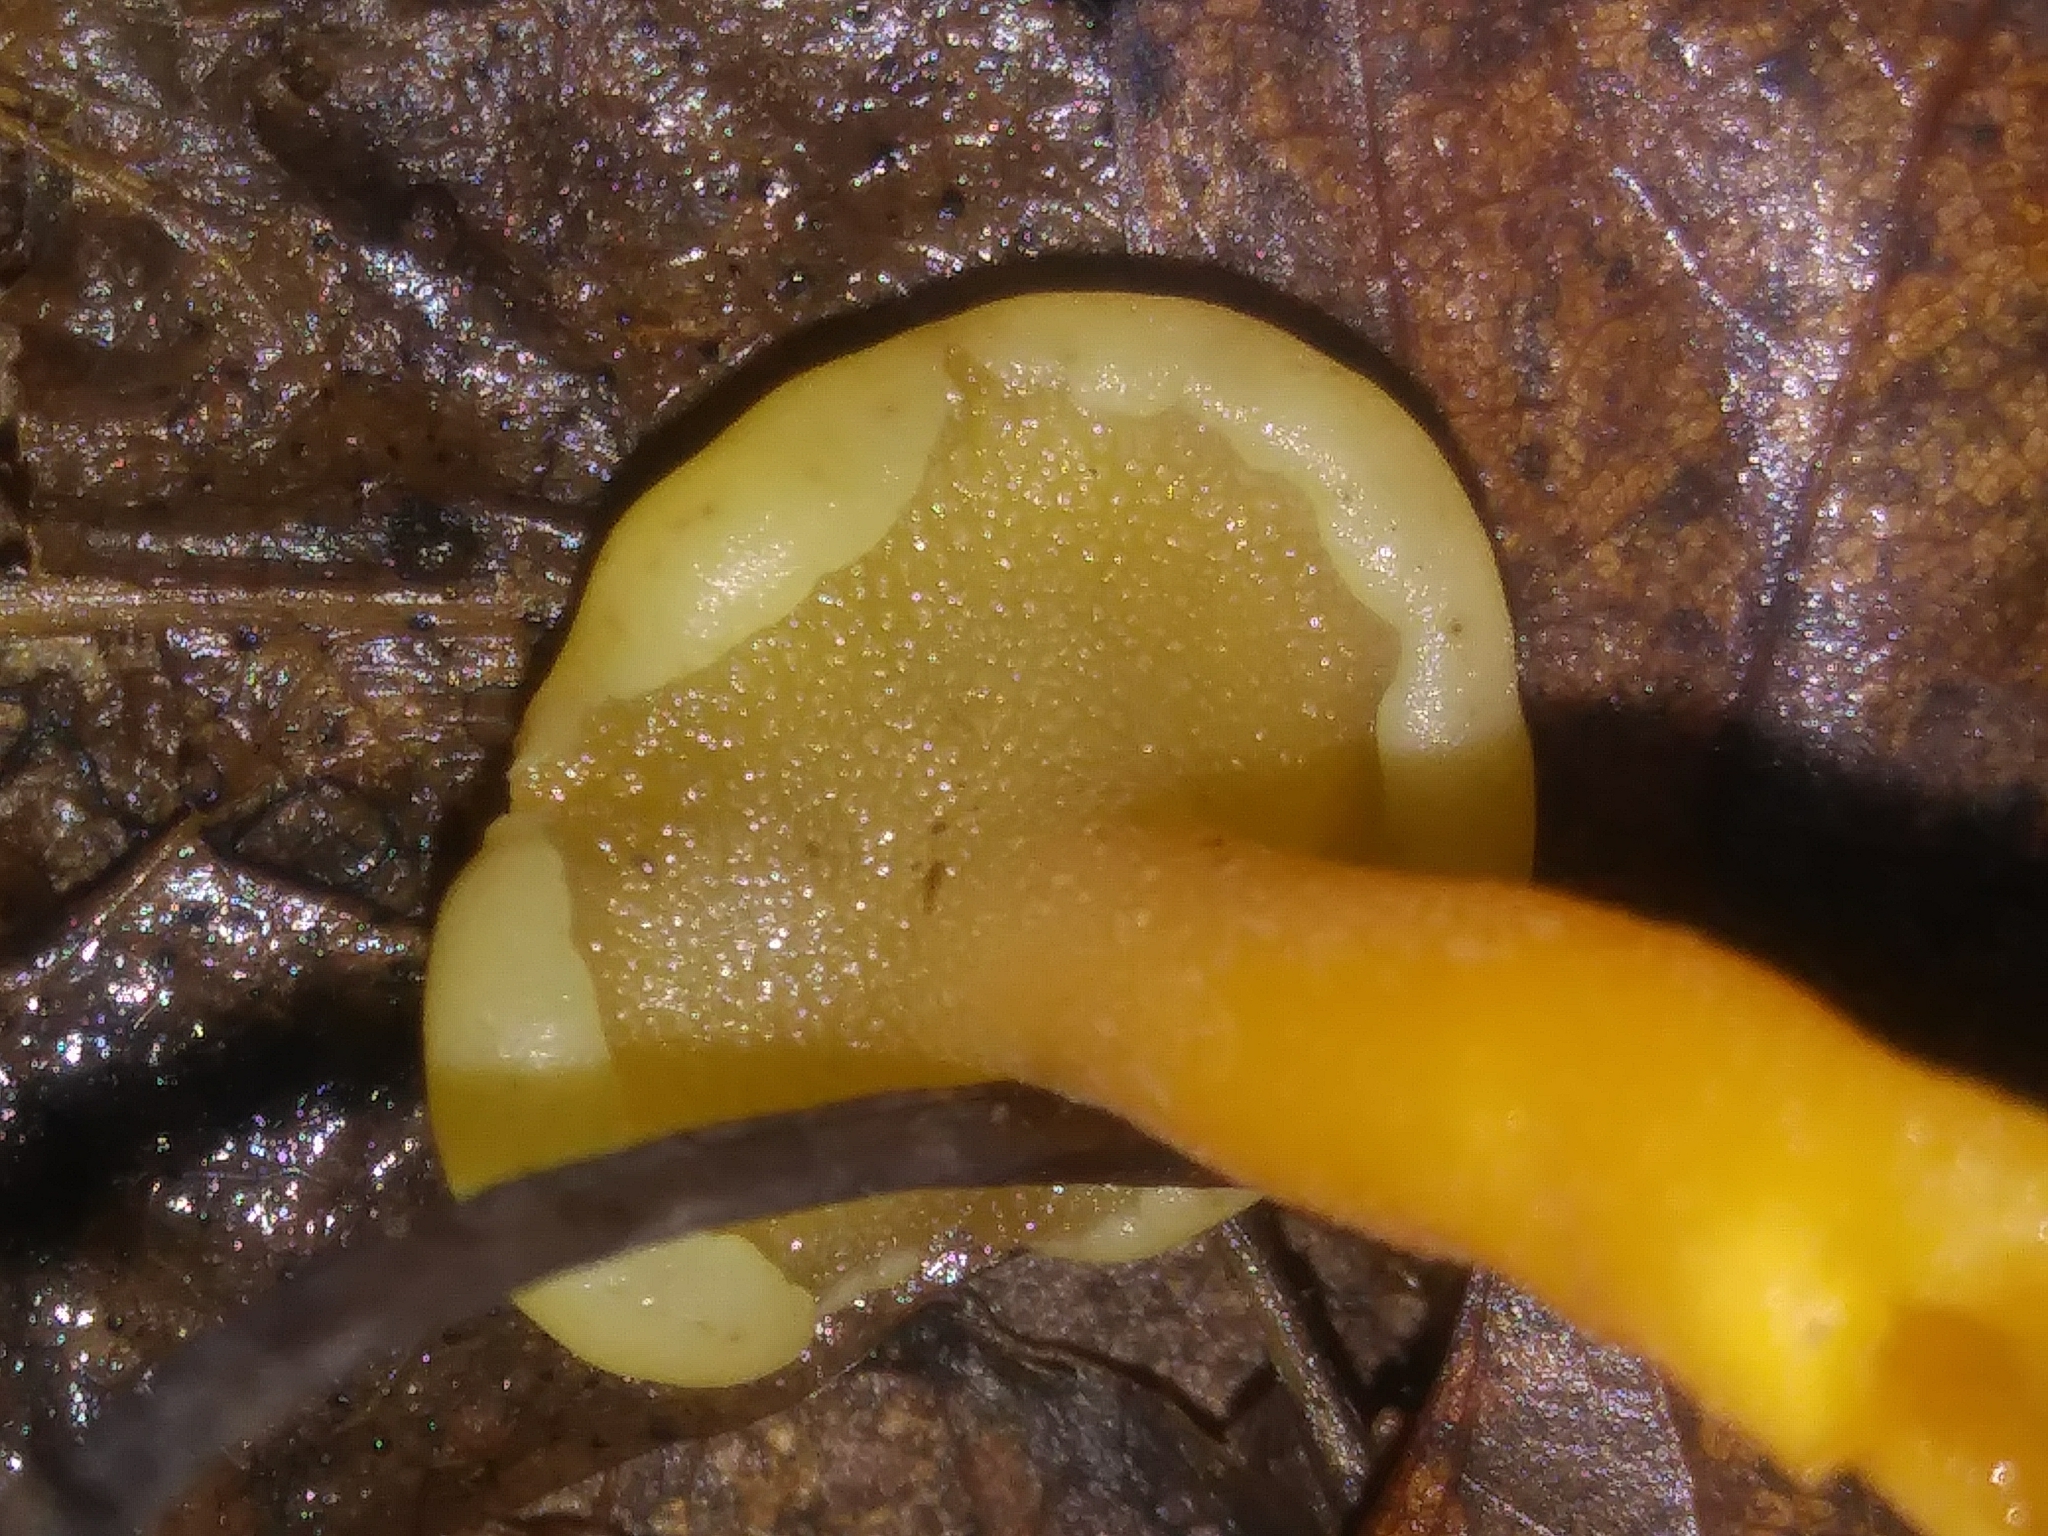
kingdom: Fungi
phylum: Ascomycota
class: Leotiomycetes
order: Leotiales
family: Leotiaceae
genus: Leotia
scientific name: Leotia lubrica
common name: Jellybaby
